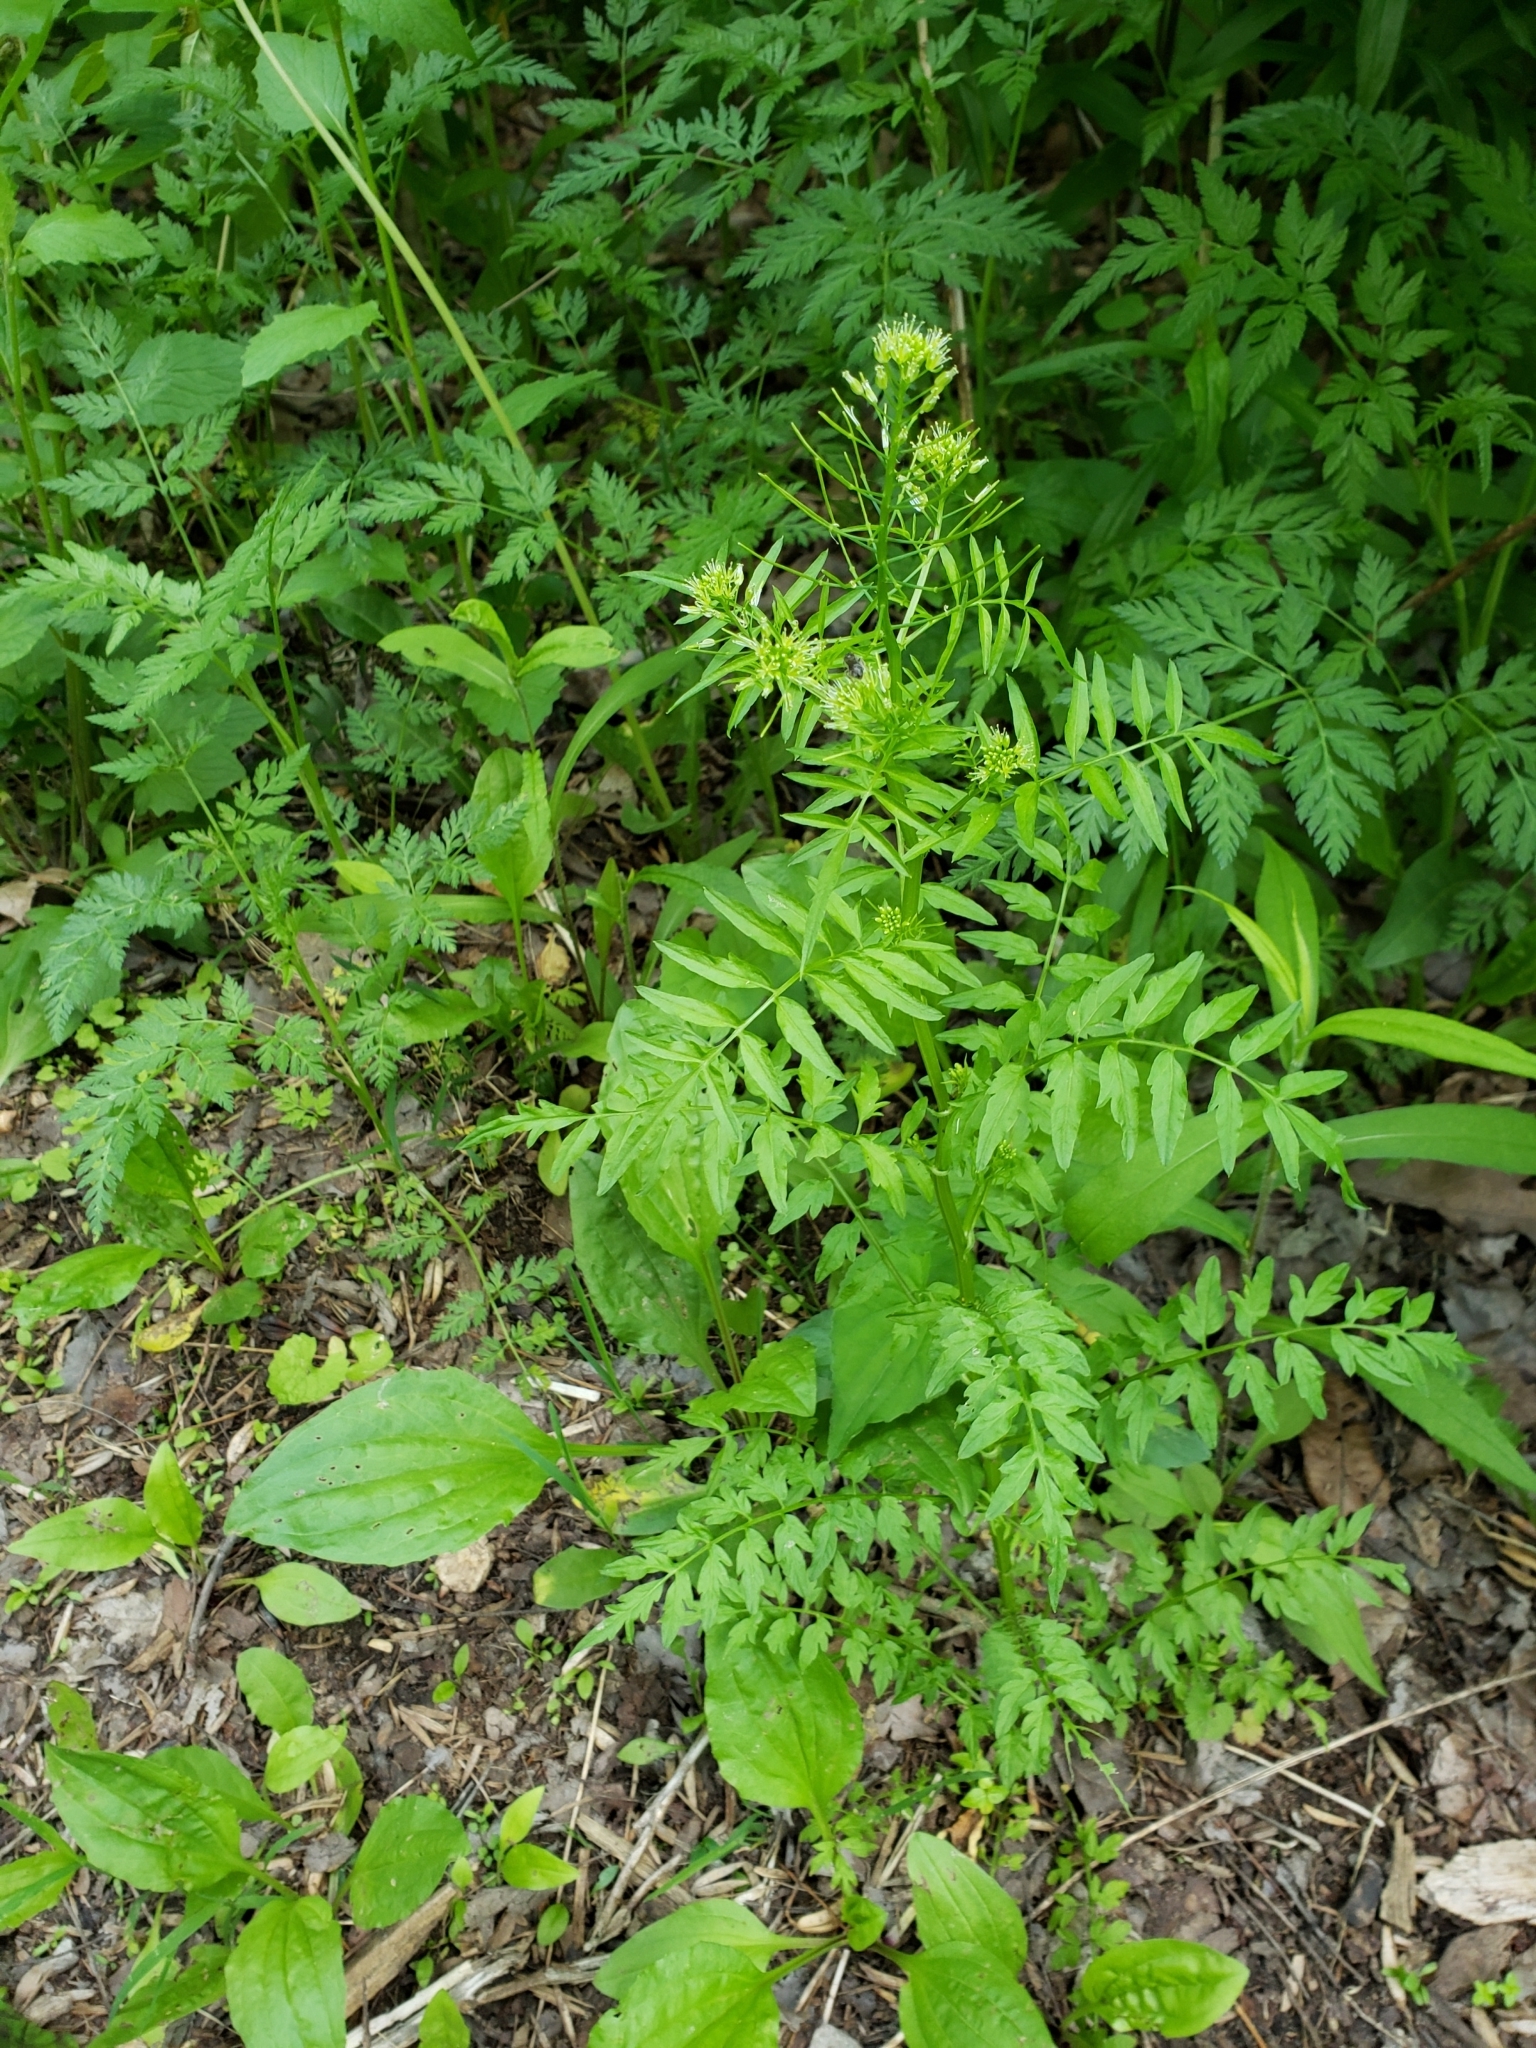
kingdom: Plantae
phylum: Tracheophyta
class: Magnoliopsida
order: Brassicales
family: Brassicaceae
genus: Cardamine
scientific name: Cardamine impatiens
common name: Narrow-leaved bitter-cress
